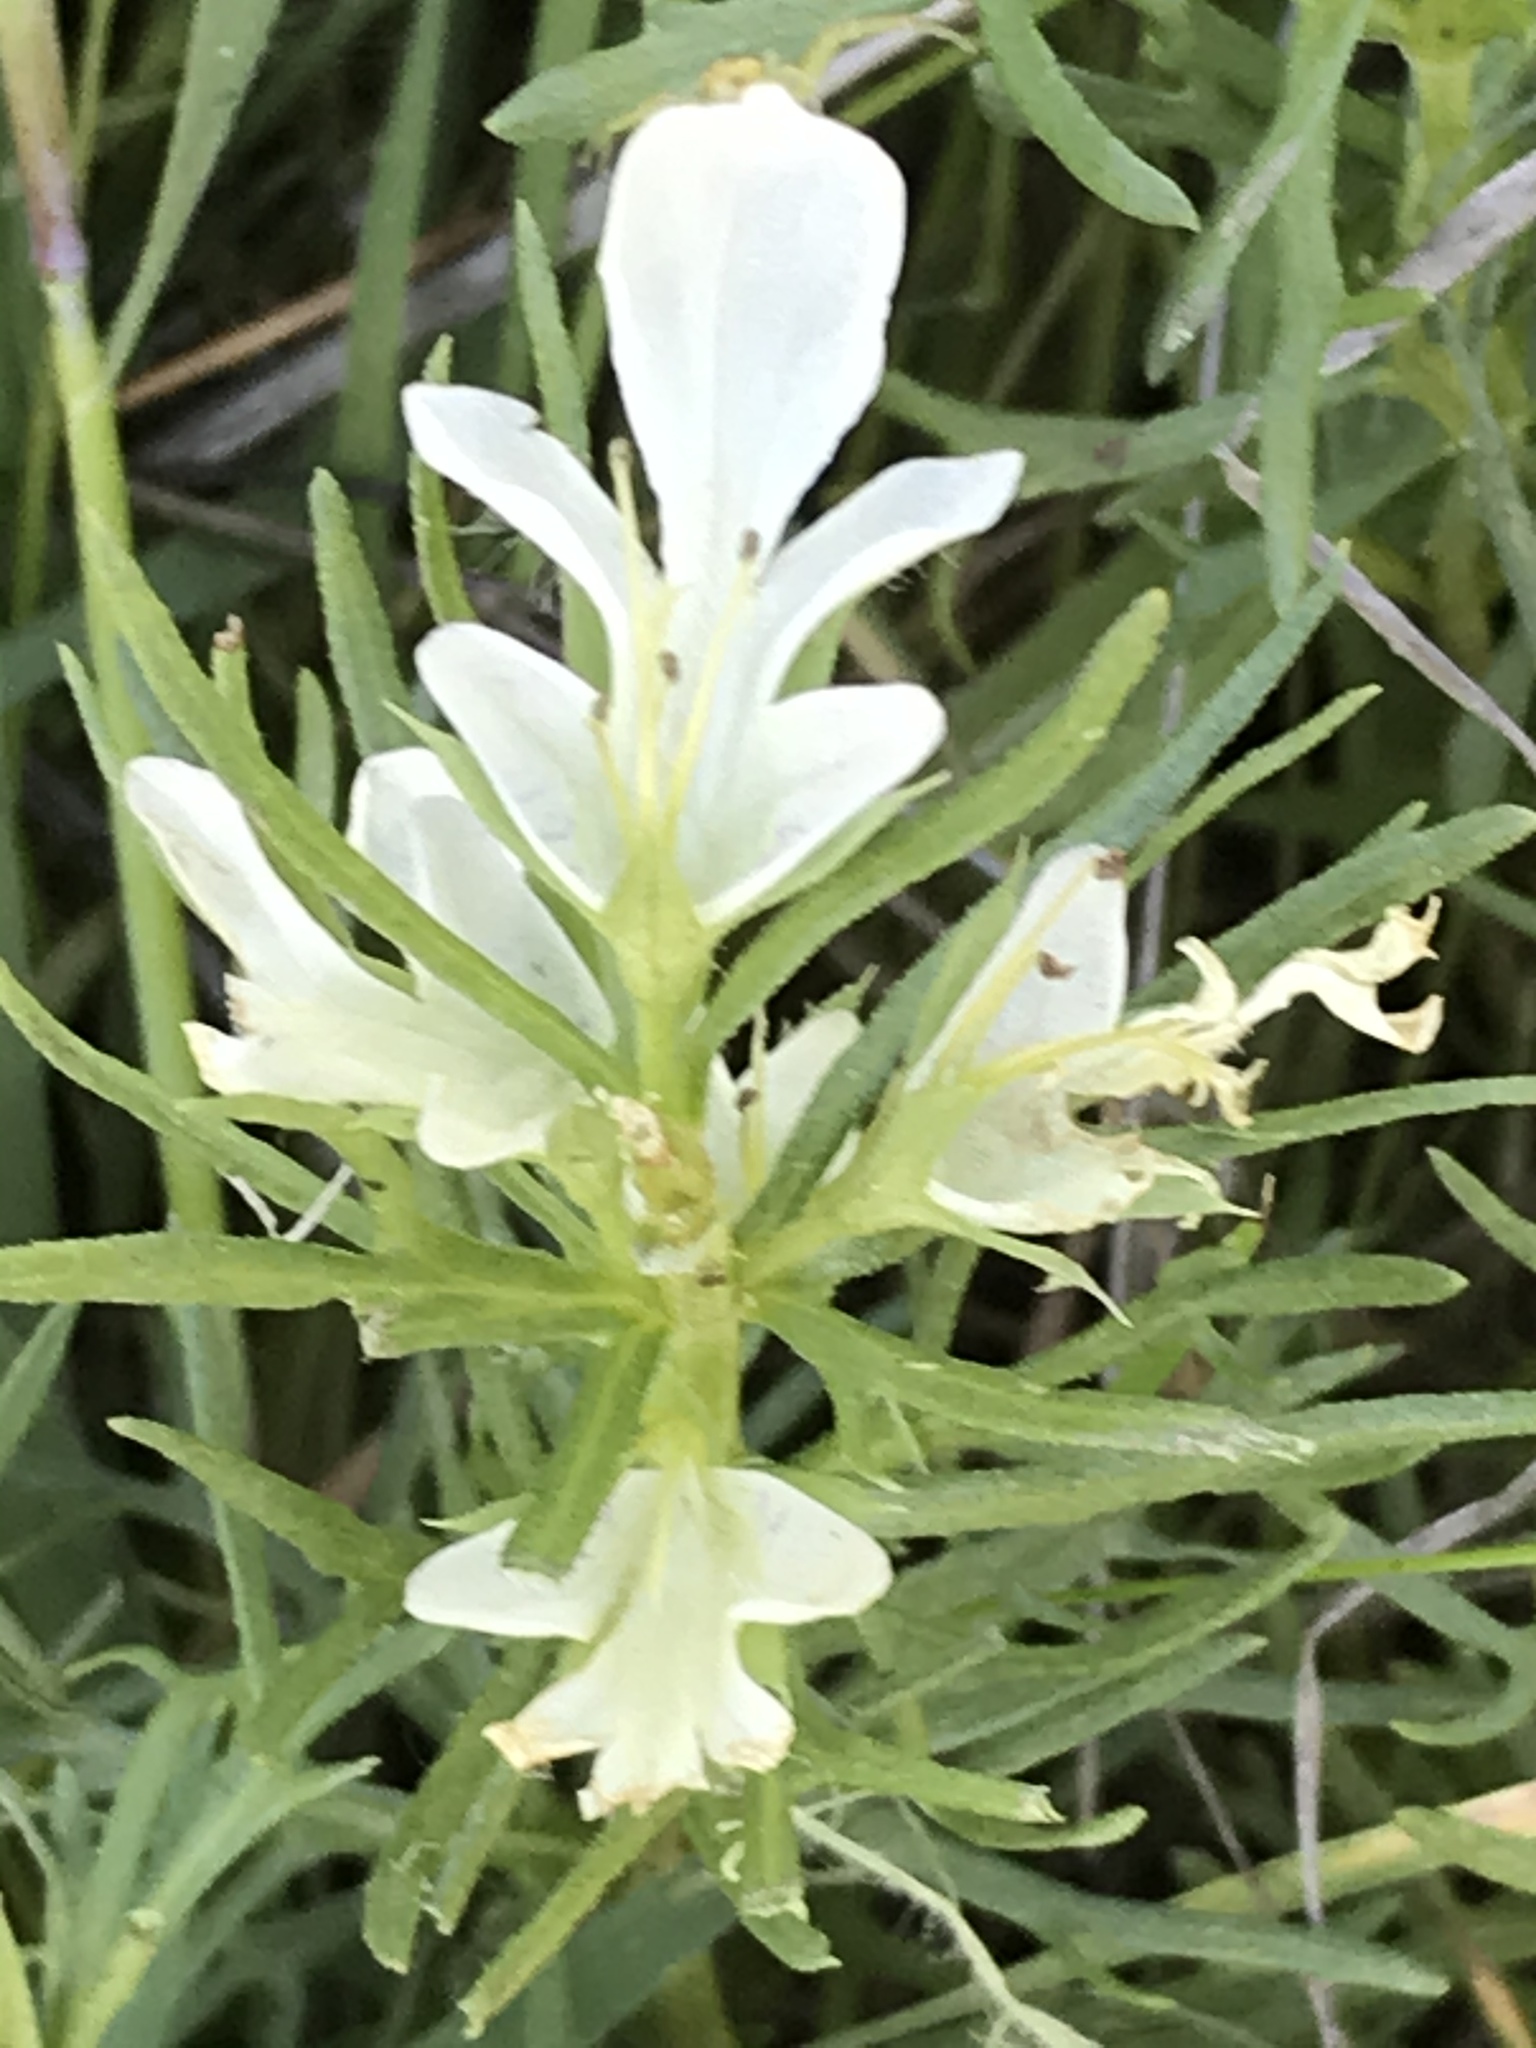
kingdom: Plantae
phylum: Tracheophyta
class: Magnoliopsida
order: Lamiales
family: Lamiaceae
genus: Teucrium
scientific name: Teucrium laciniatum
